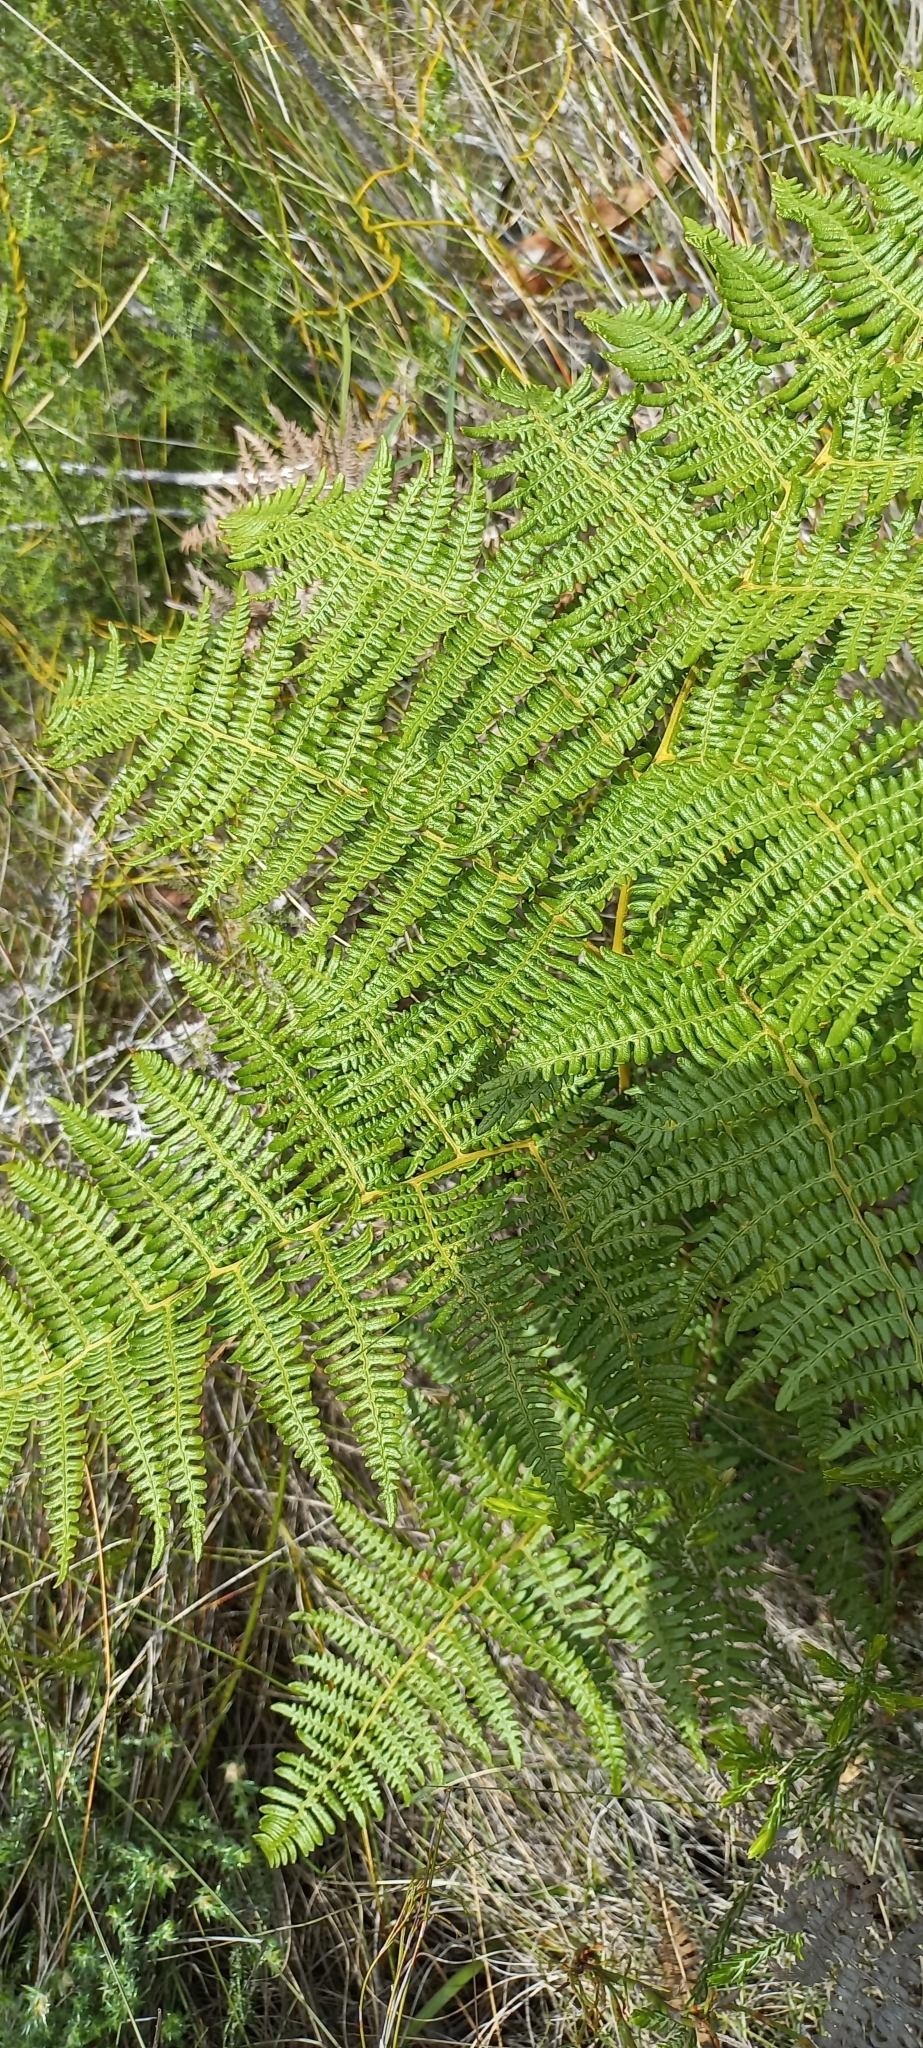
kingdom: Plantae
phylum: Tracheophyta
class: Polypodiopsida
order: Polypodiales
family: Dennstaedtiaceae
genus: Pteridium
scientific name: Pteridium aquilinum
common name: Bracken
